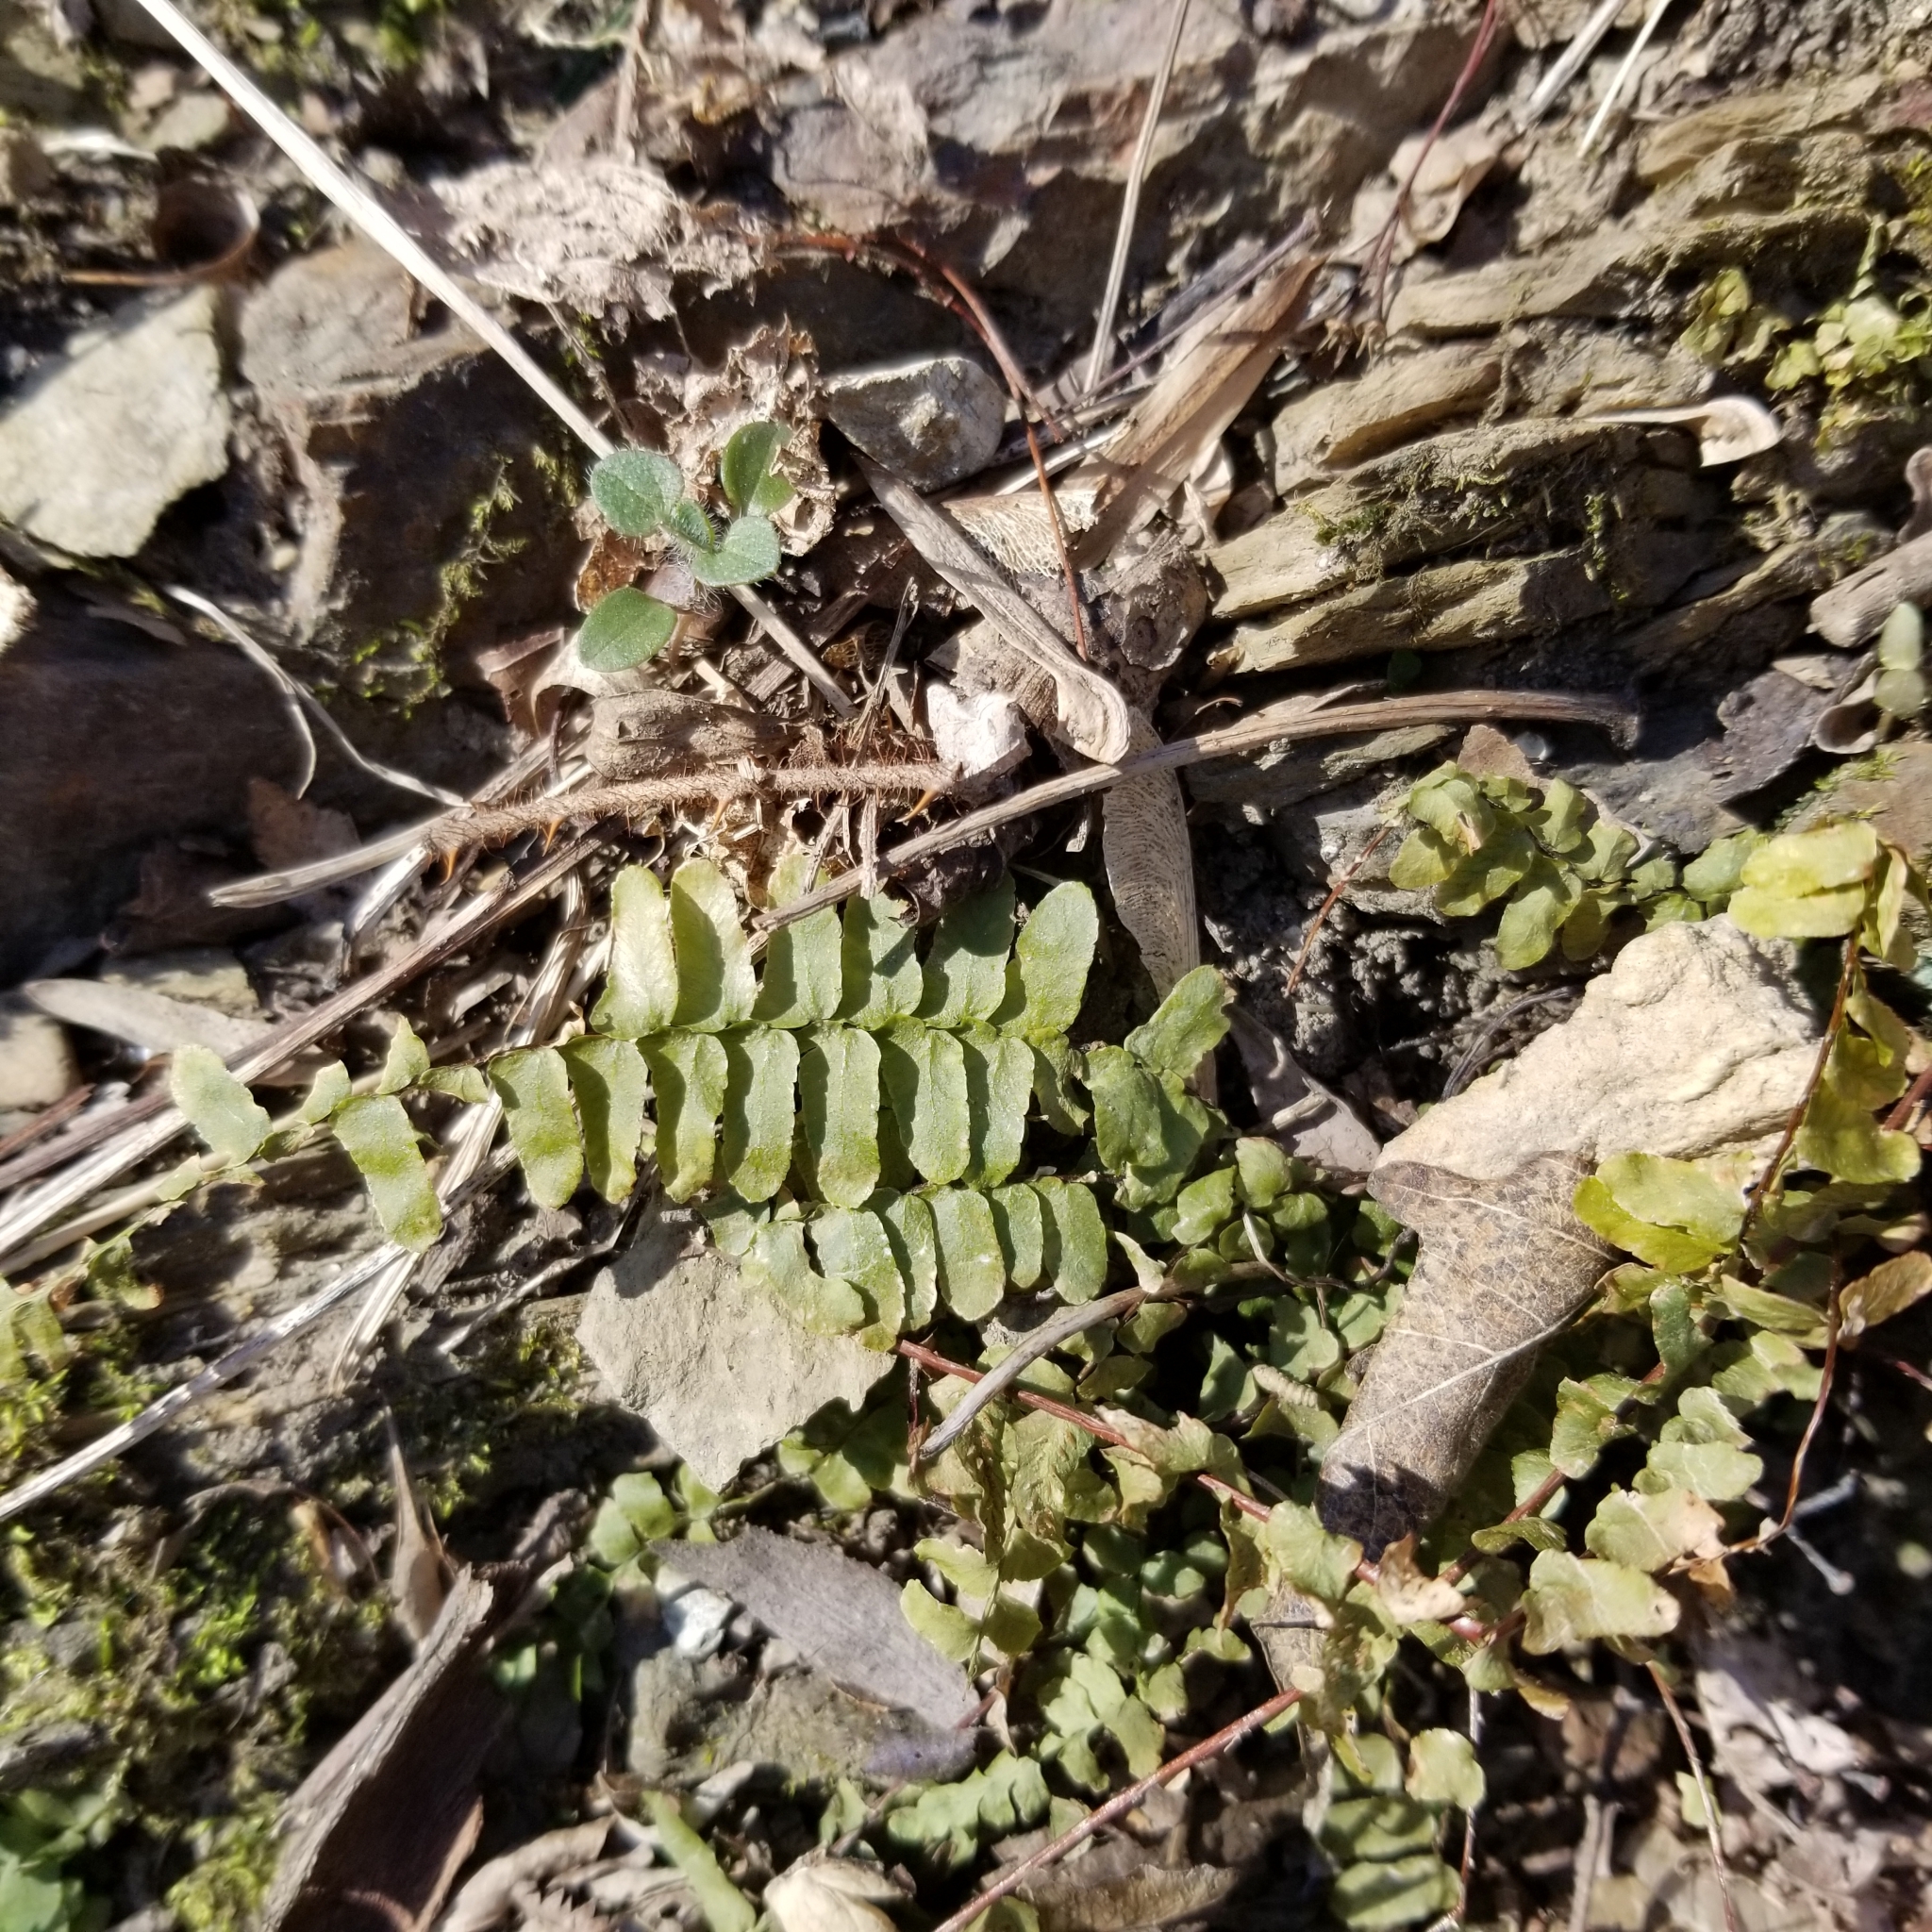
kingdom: Plantae
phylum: Tracheophyta
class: Polypodiopsida
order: Polypodiales
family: Aspleniaceae
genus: Asplenium
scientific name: Asplenium platyneuron
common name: Ebony spleenwort
